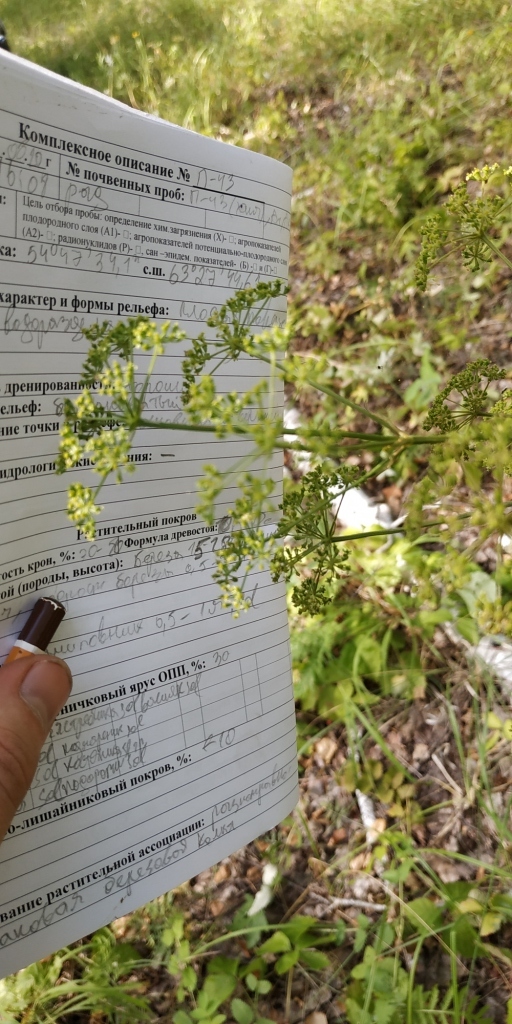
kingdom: Plantae
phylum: Tracheophyta
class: Magnoliopsida
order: Apiales
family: Apiaceae
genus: Silaum
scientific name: Silaum silaus
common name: Pepper-saxifrage
